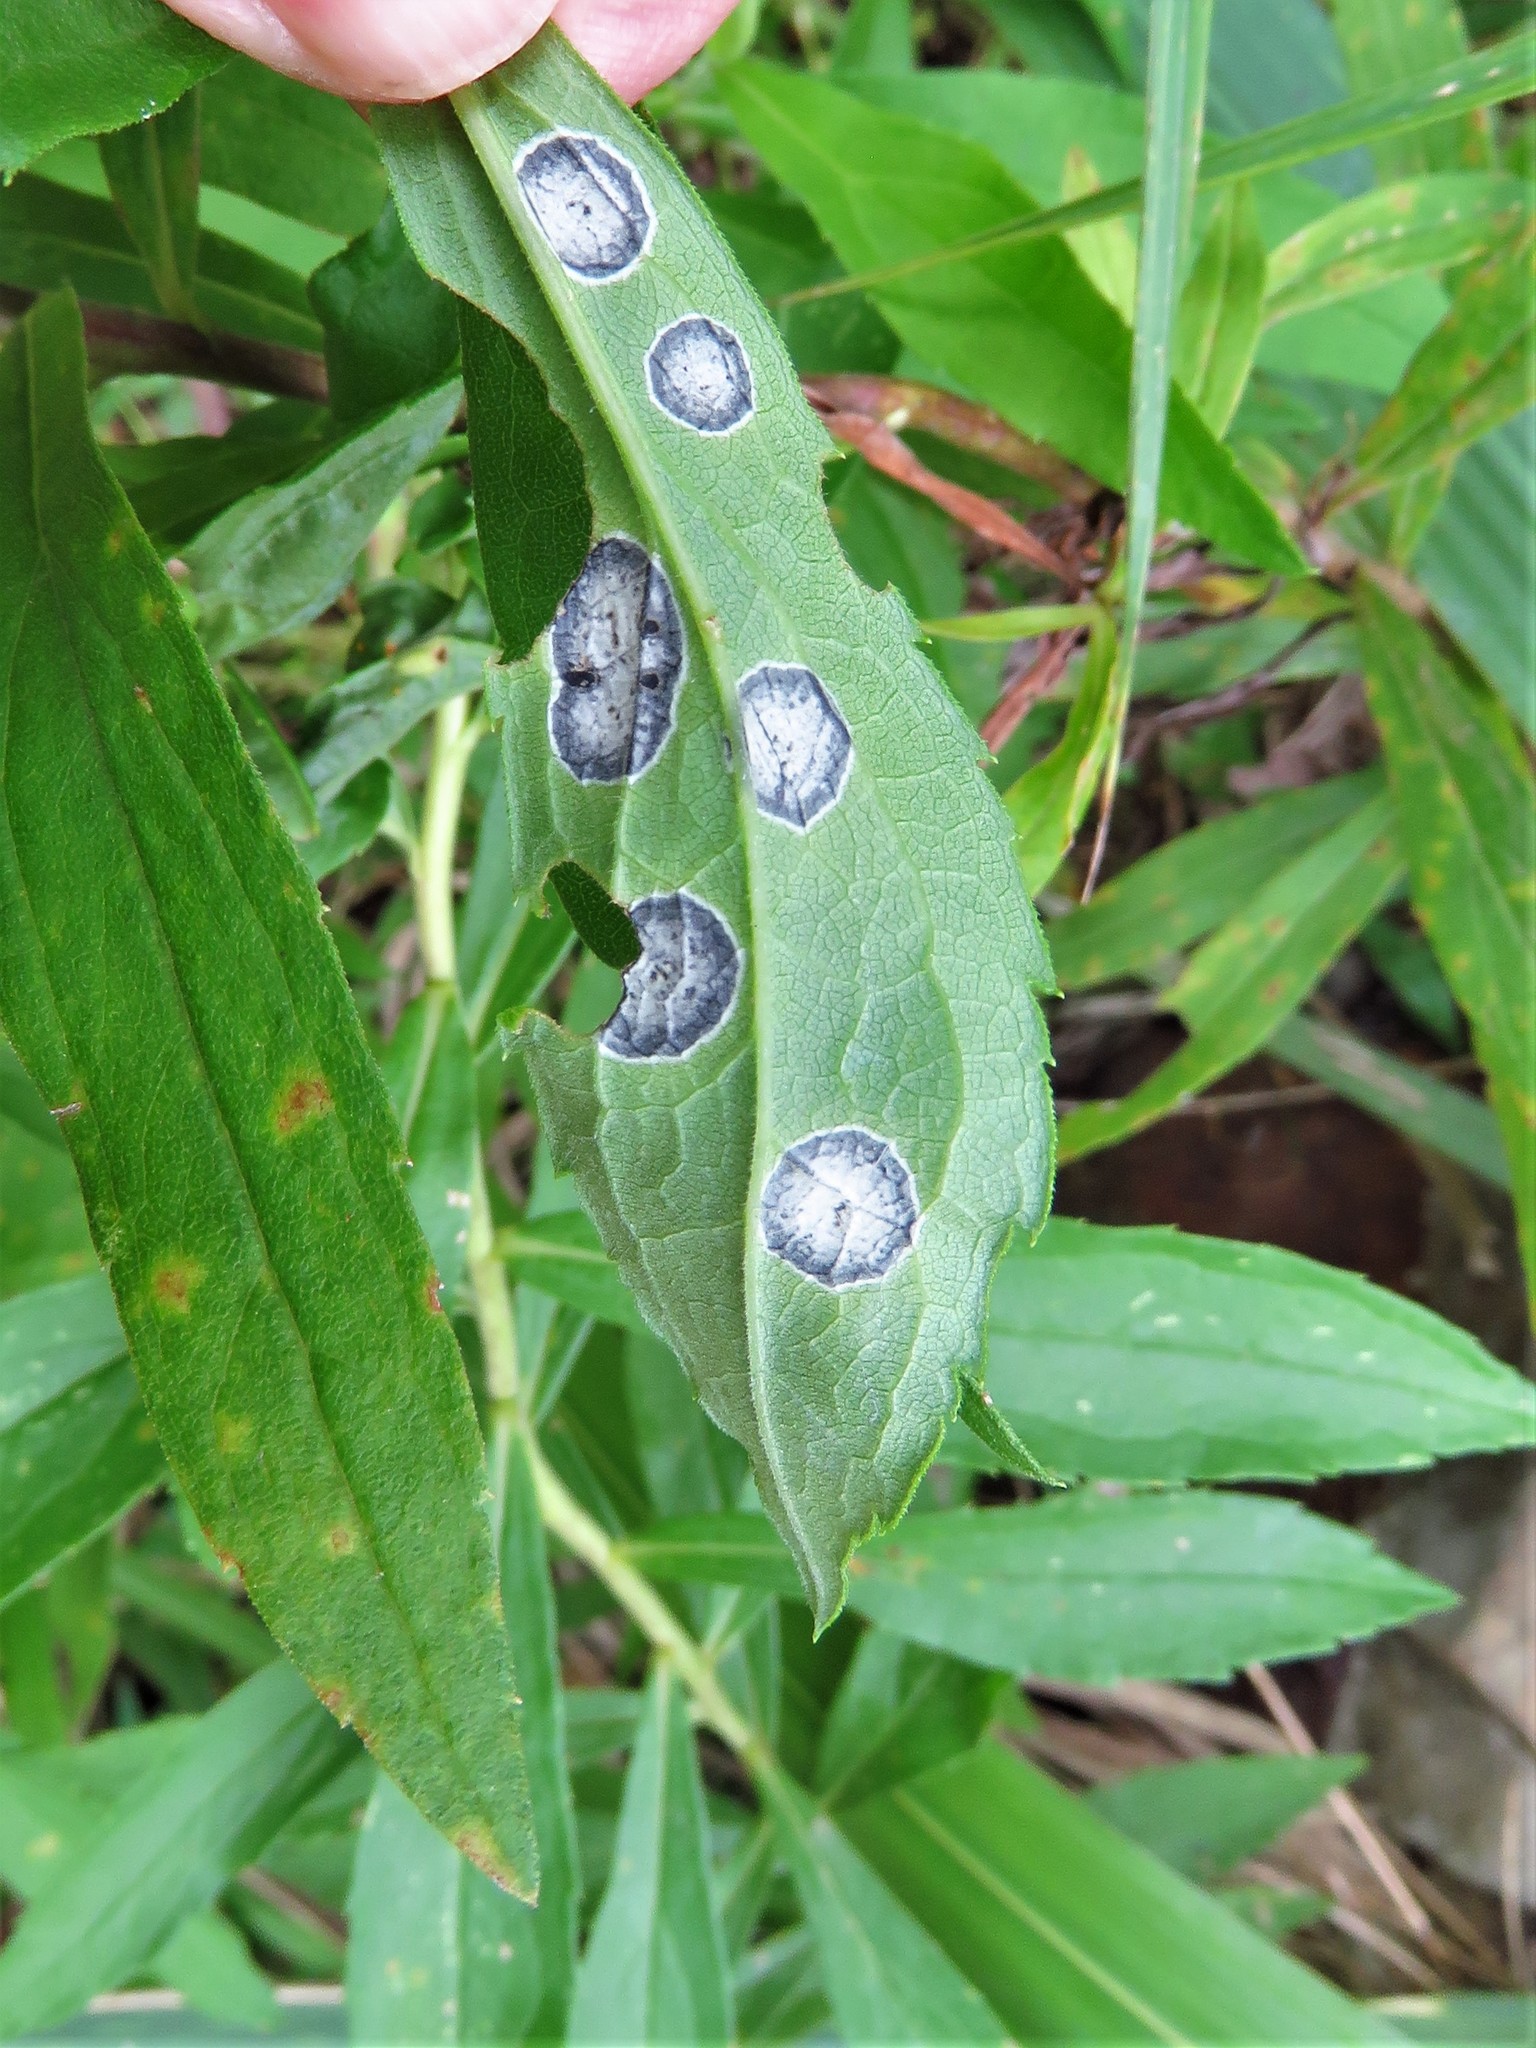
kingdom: Animalia
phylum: Arthropoda
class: Insecta
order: Diptera
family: Cecidomyiidae
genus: Asteromyia
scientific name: Asteromyia carbonifera
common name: Carbonifera goldenrod gall midge
